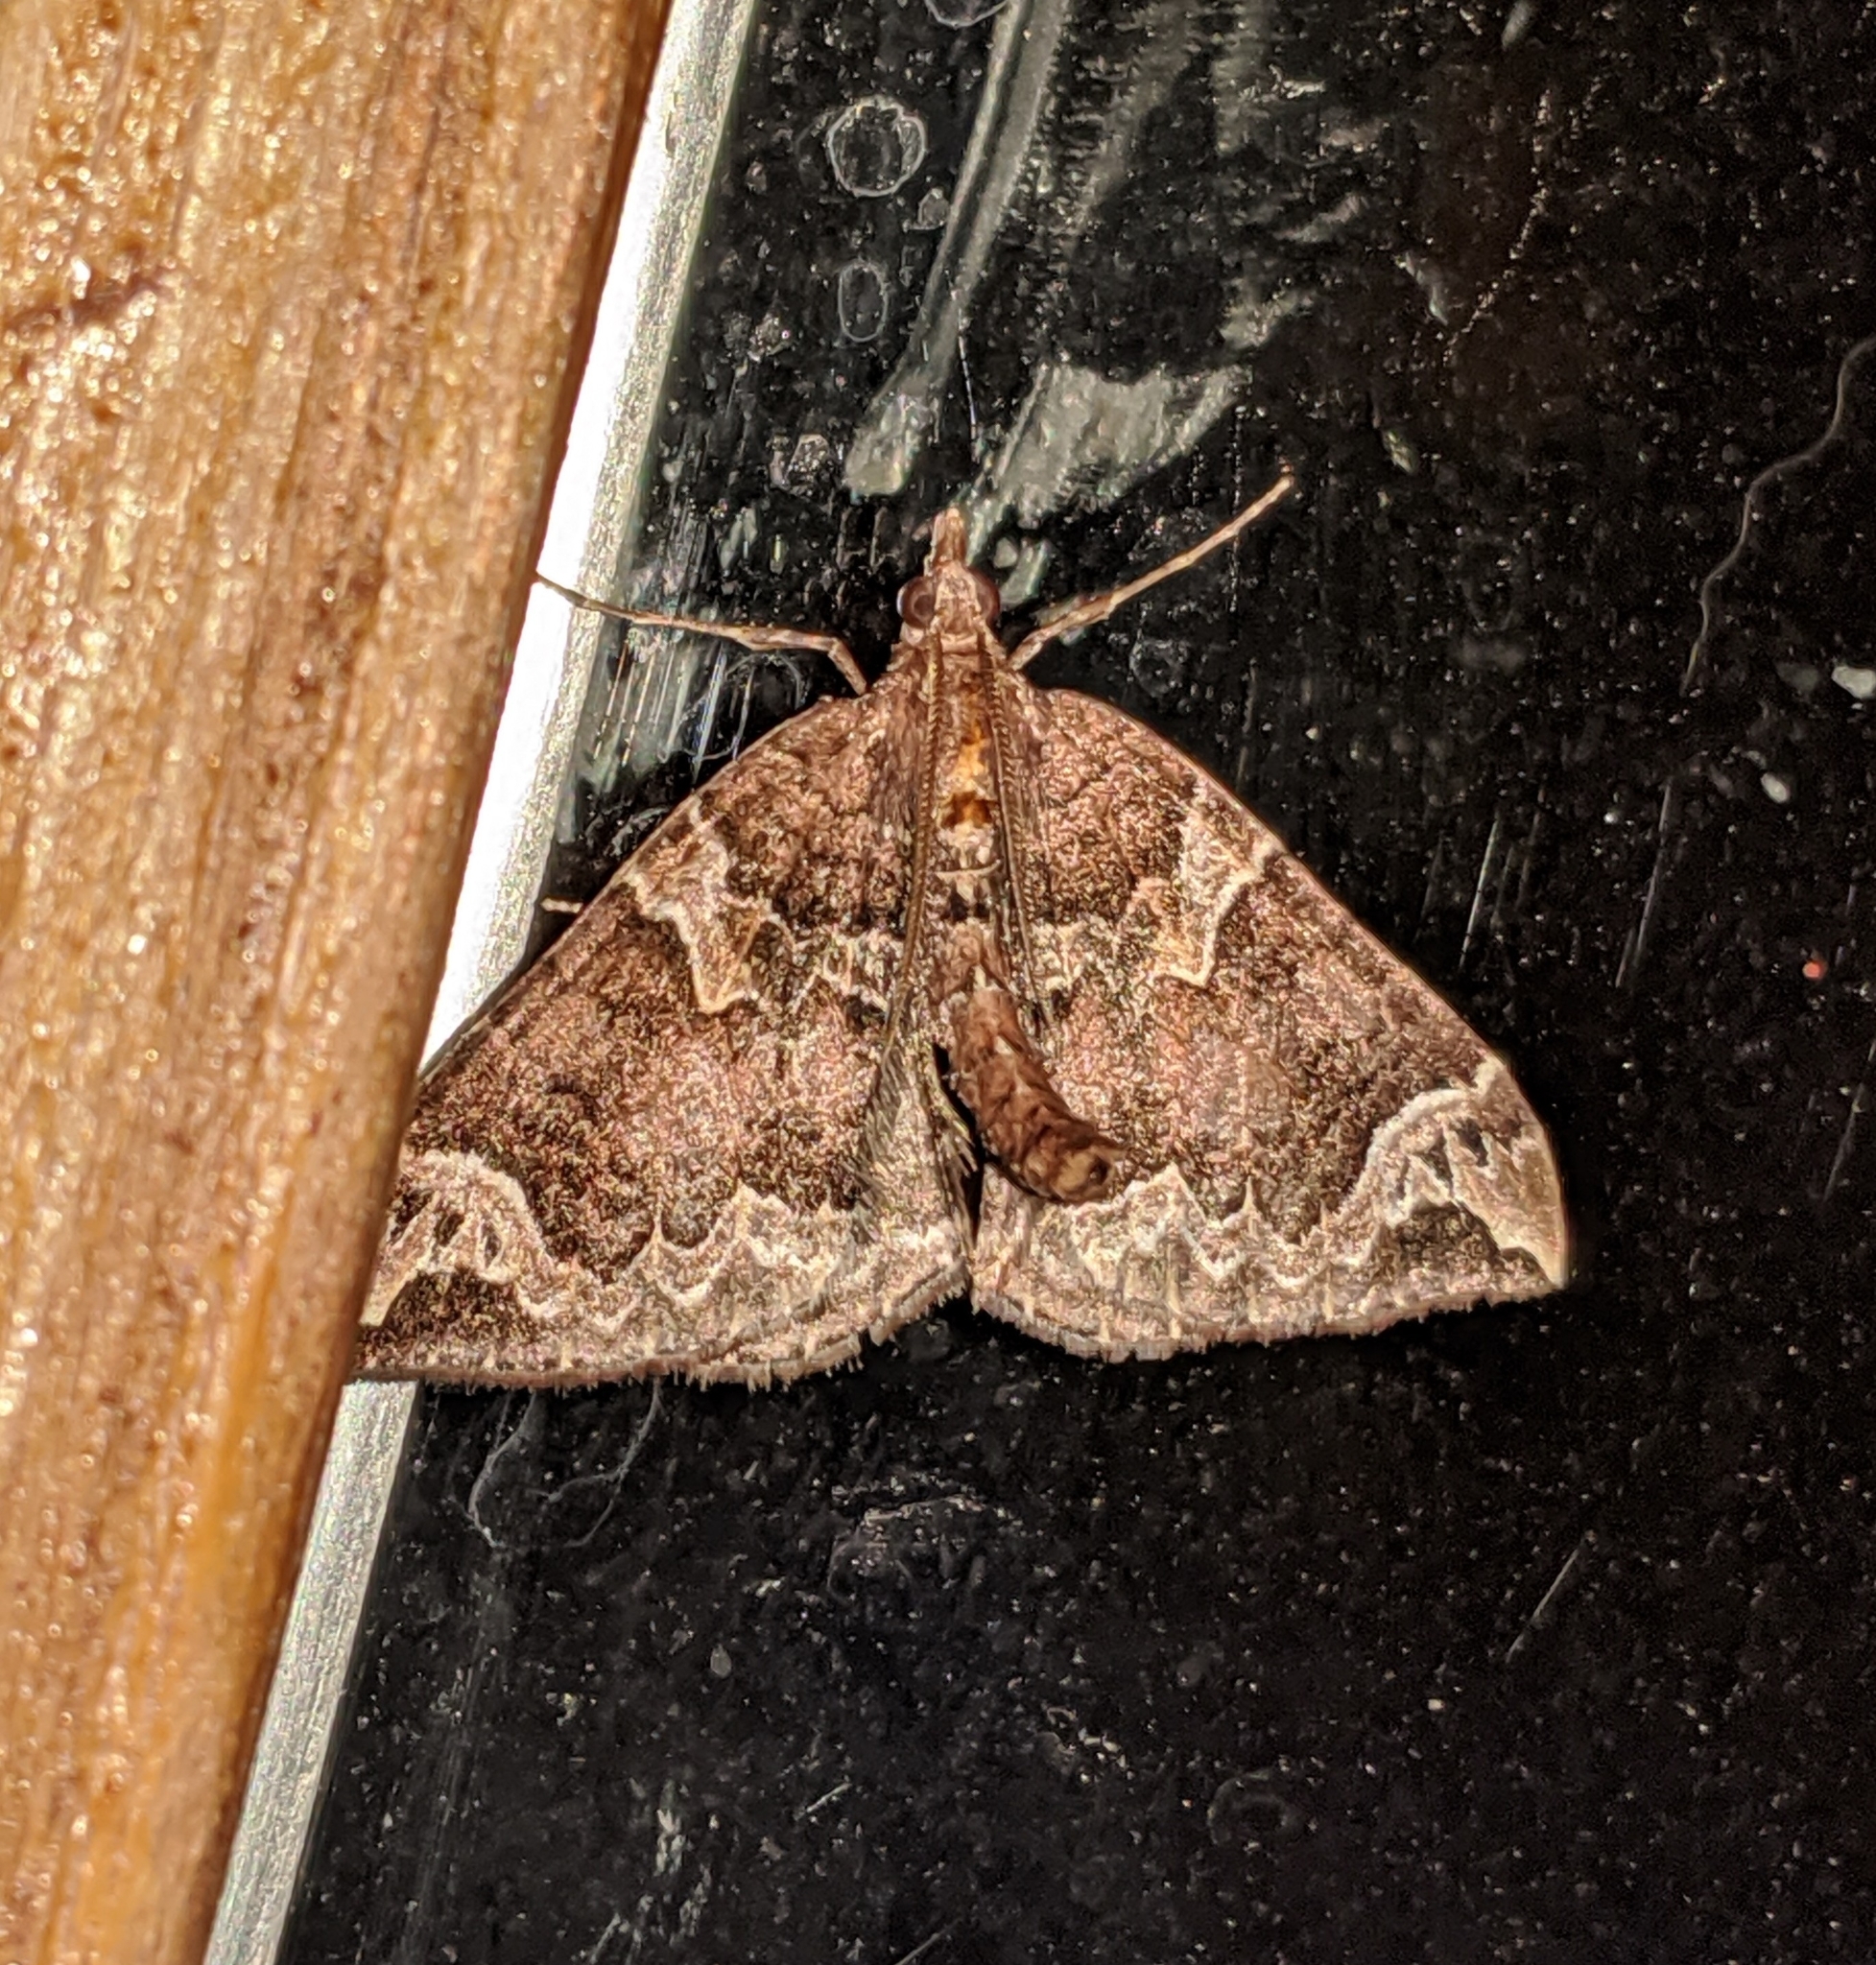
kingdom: Animalia
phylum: Arthropoda
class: Insecta
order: Lepidoptera
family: Geometridae
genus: Eulithis
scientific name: Eulithis xylina
